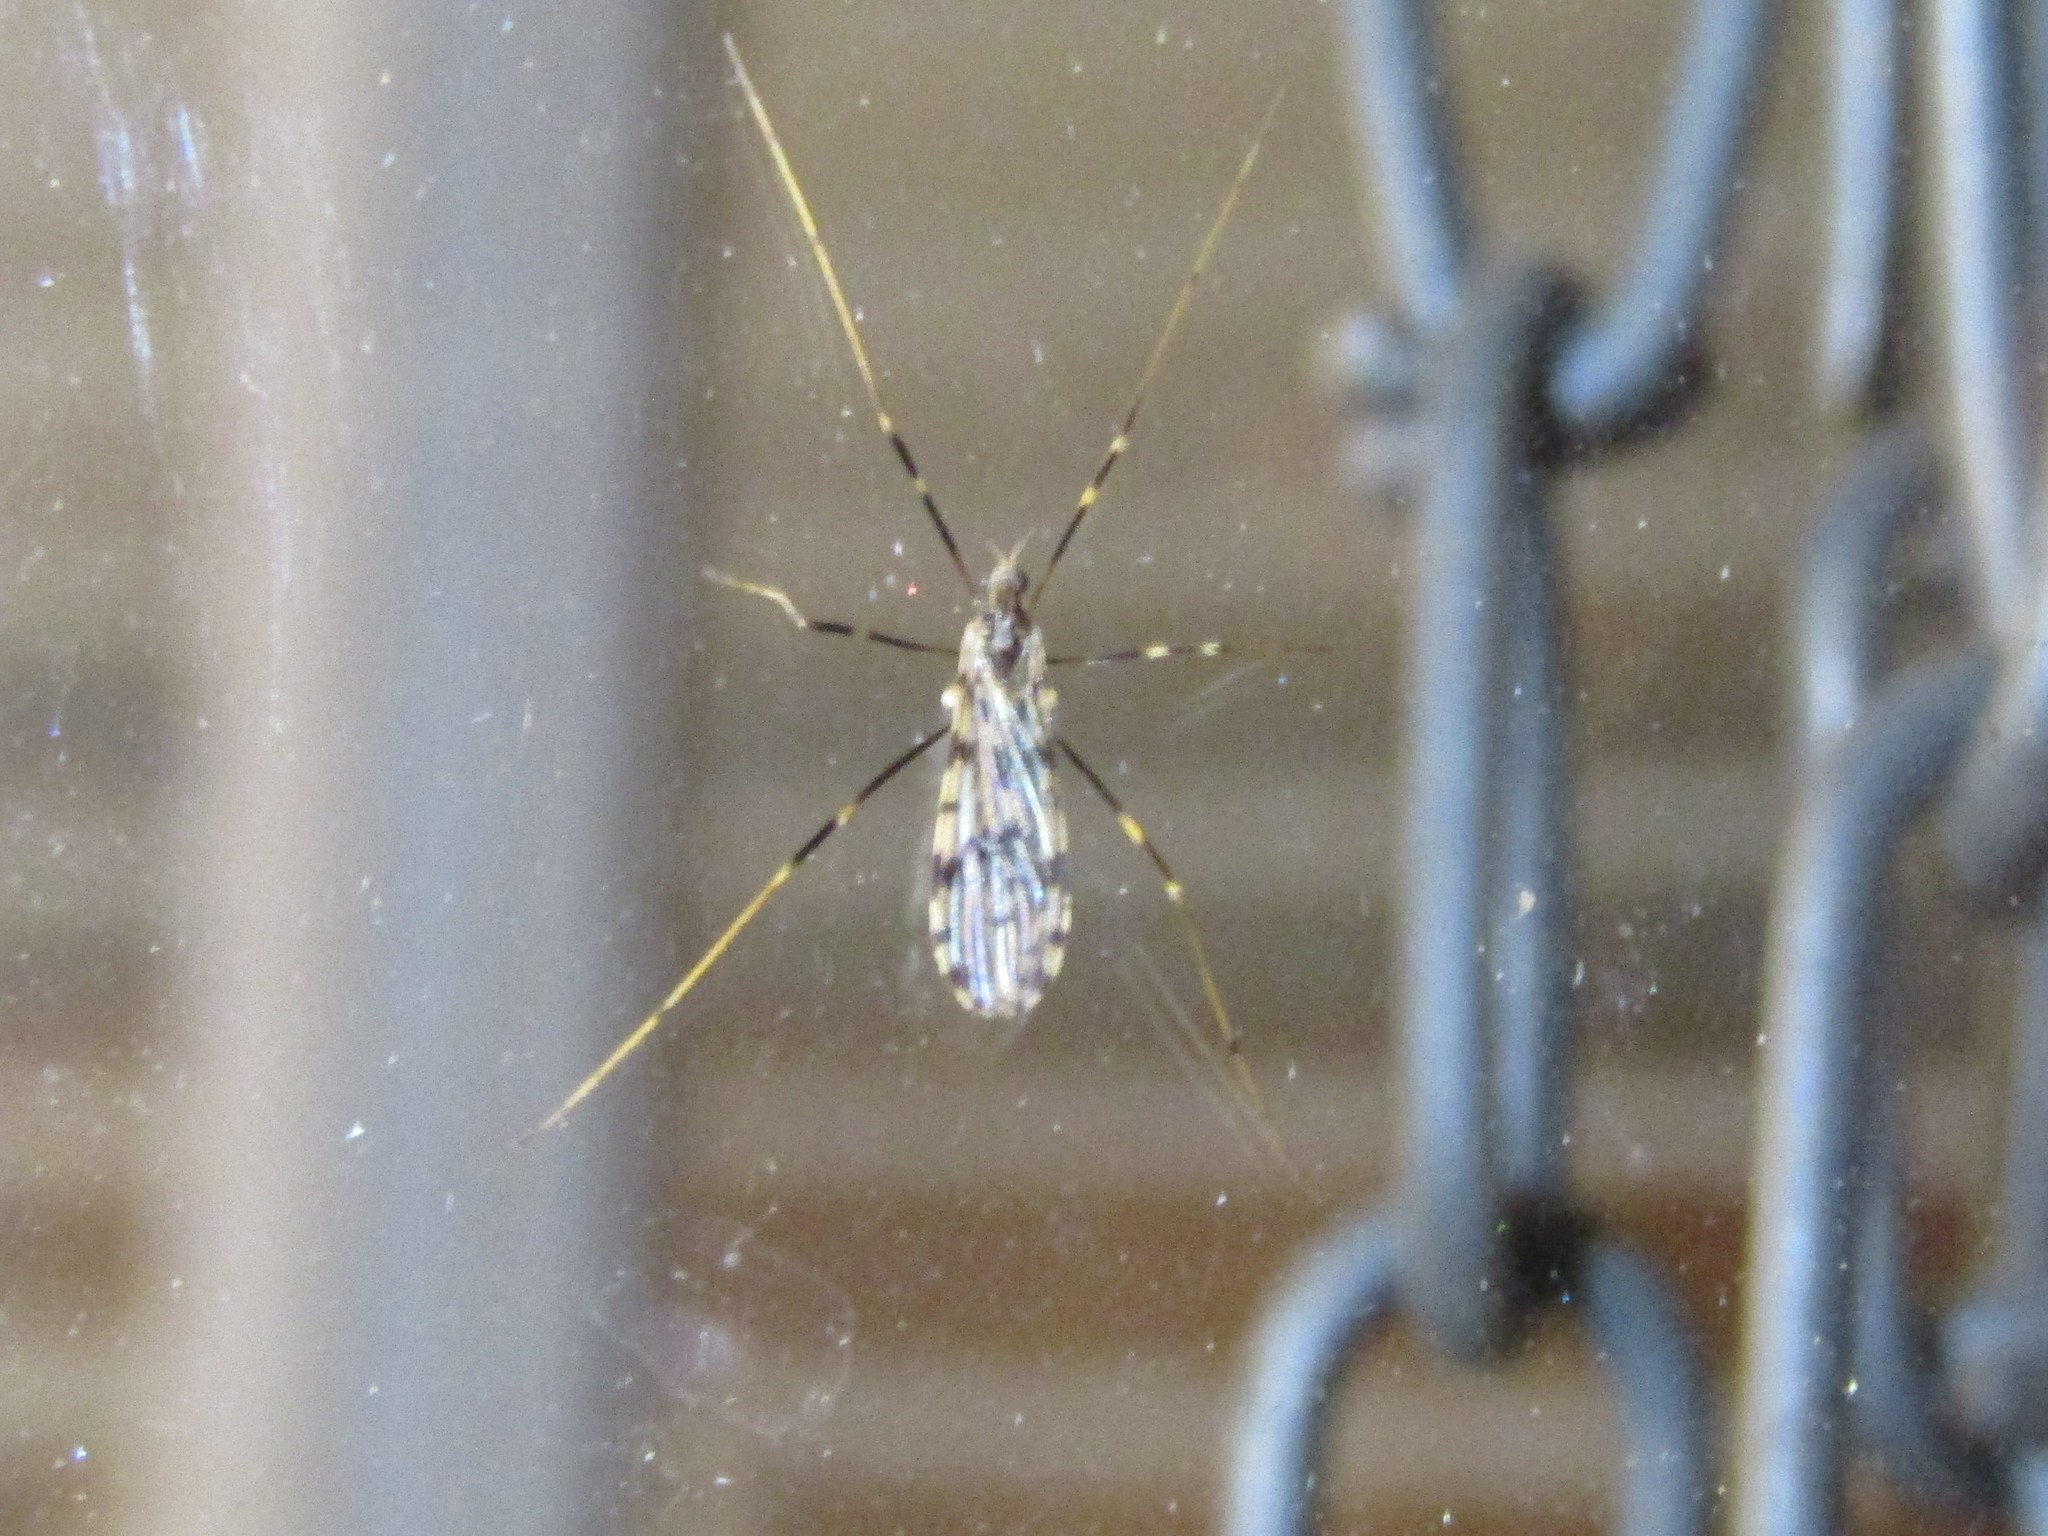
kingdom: Animalia
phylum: Arthropoda
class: Insecta
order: Diptera
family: Limoniidae
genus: Ilisia
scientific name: Ilisia graphica
